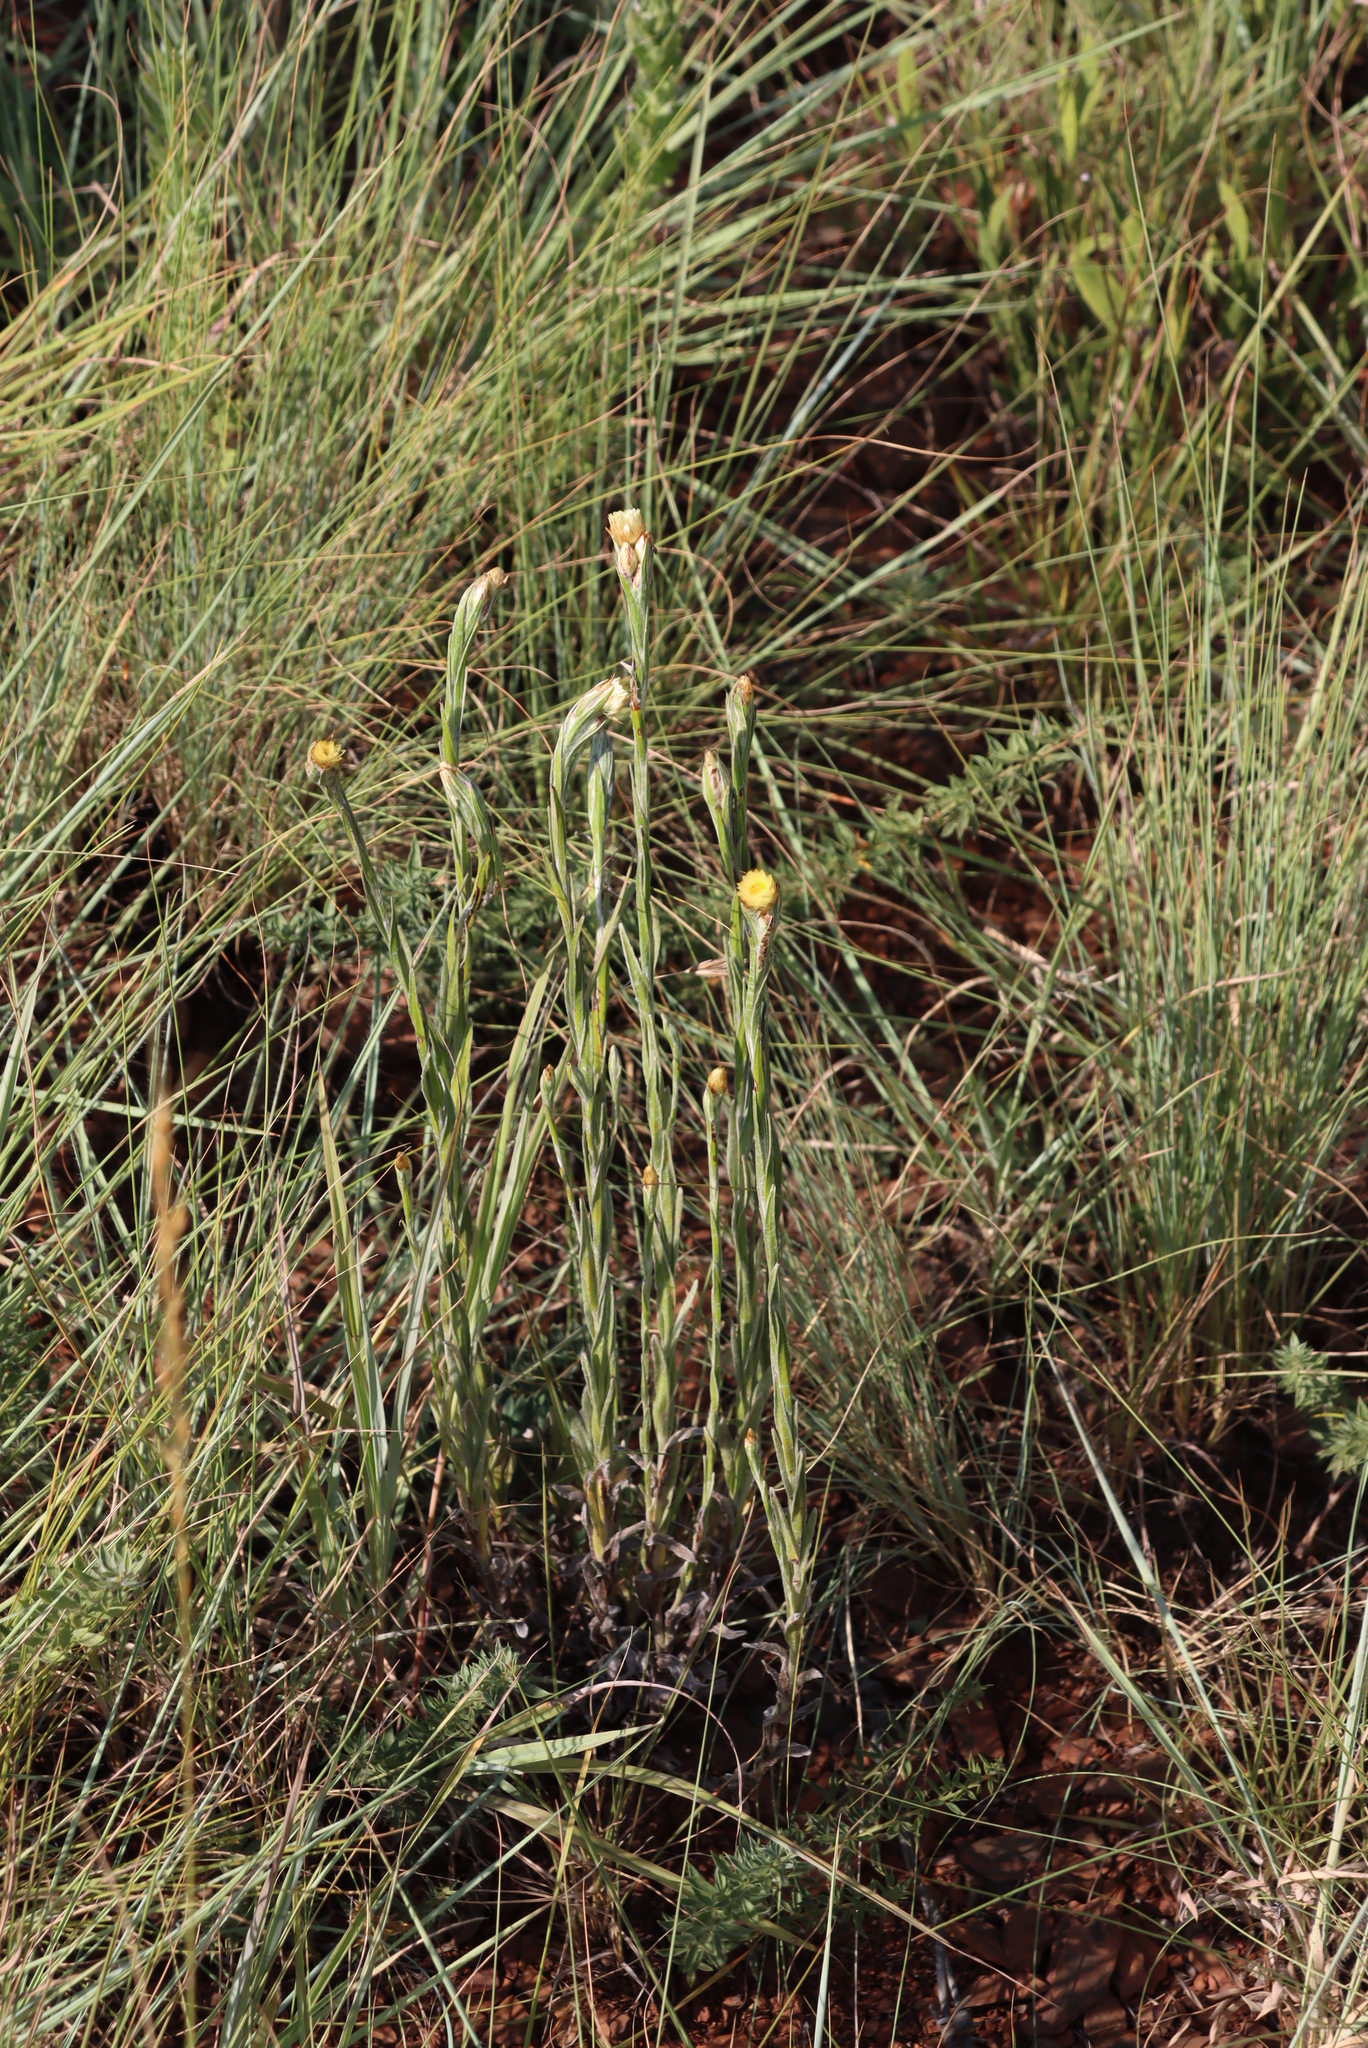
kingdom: Plantae
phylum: Tracheophyta
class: Magnoliopsida
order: Asterales
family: Asteraceae
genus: Helichrysum
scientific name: Helichrysum mixtum
